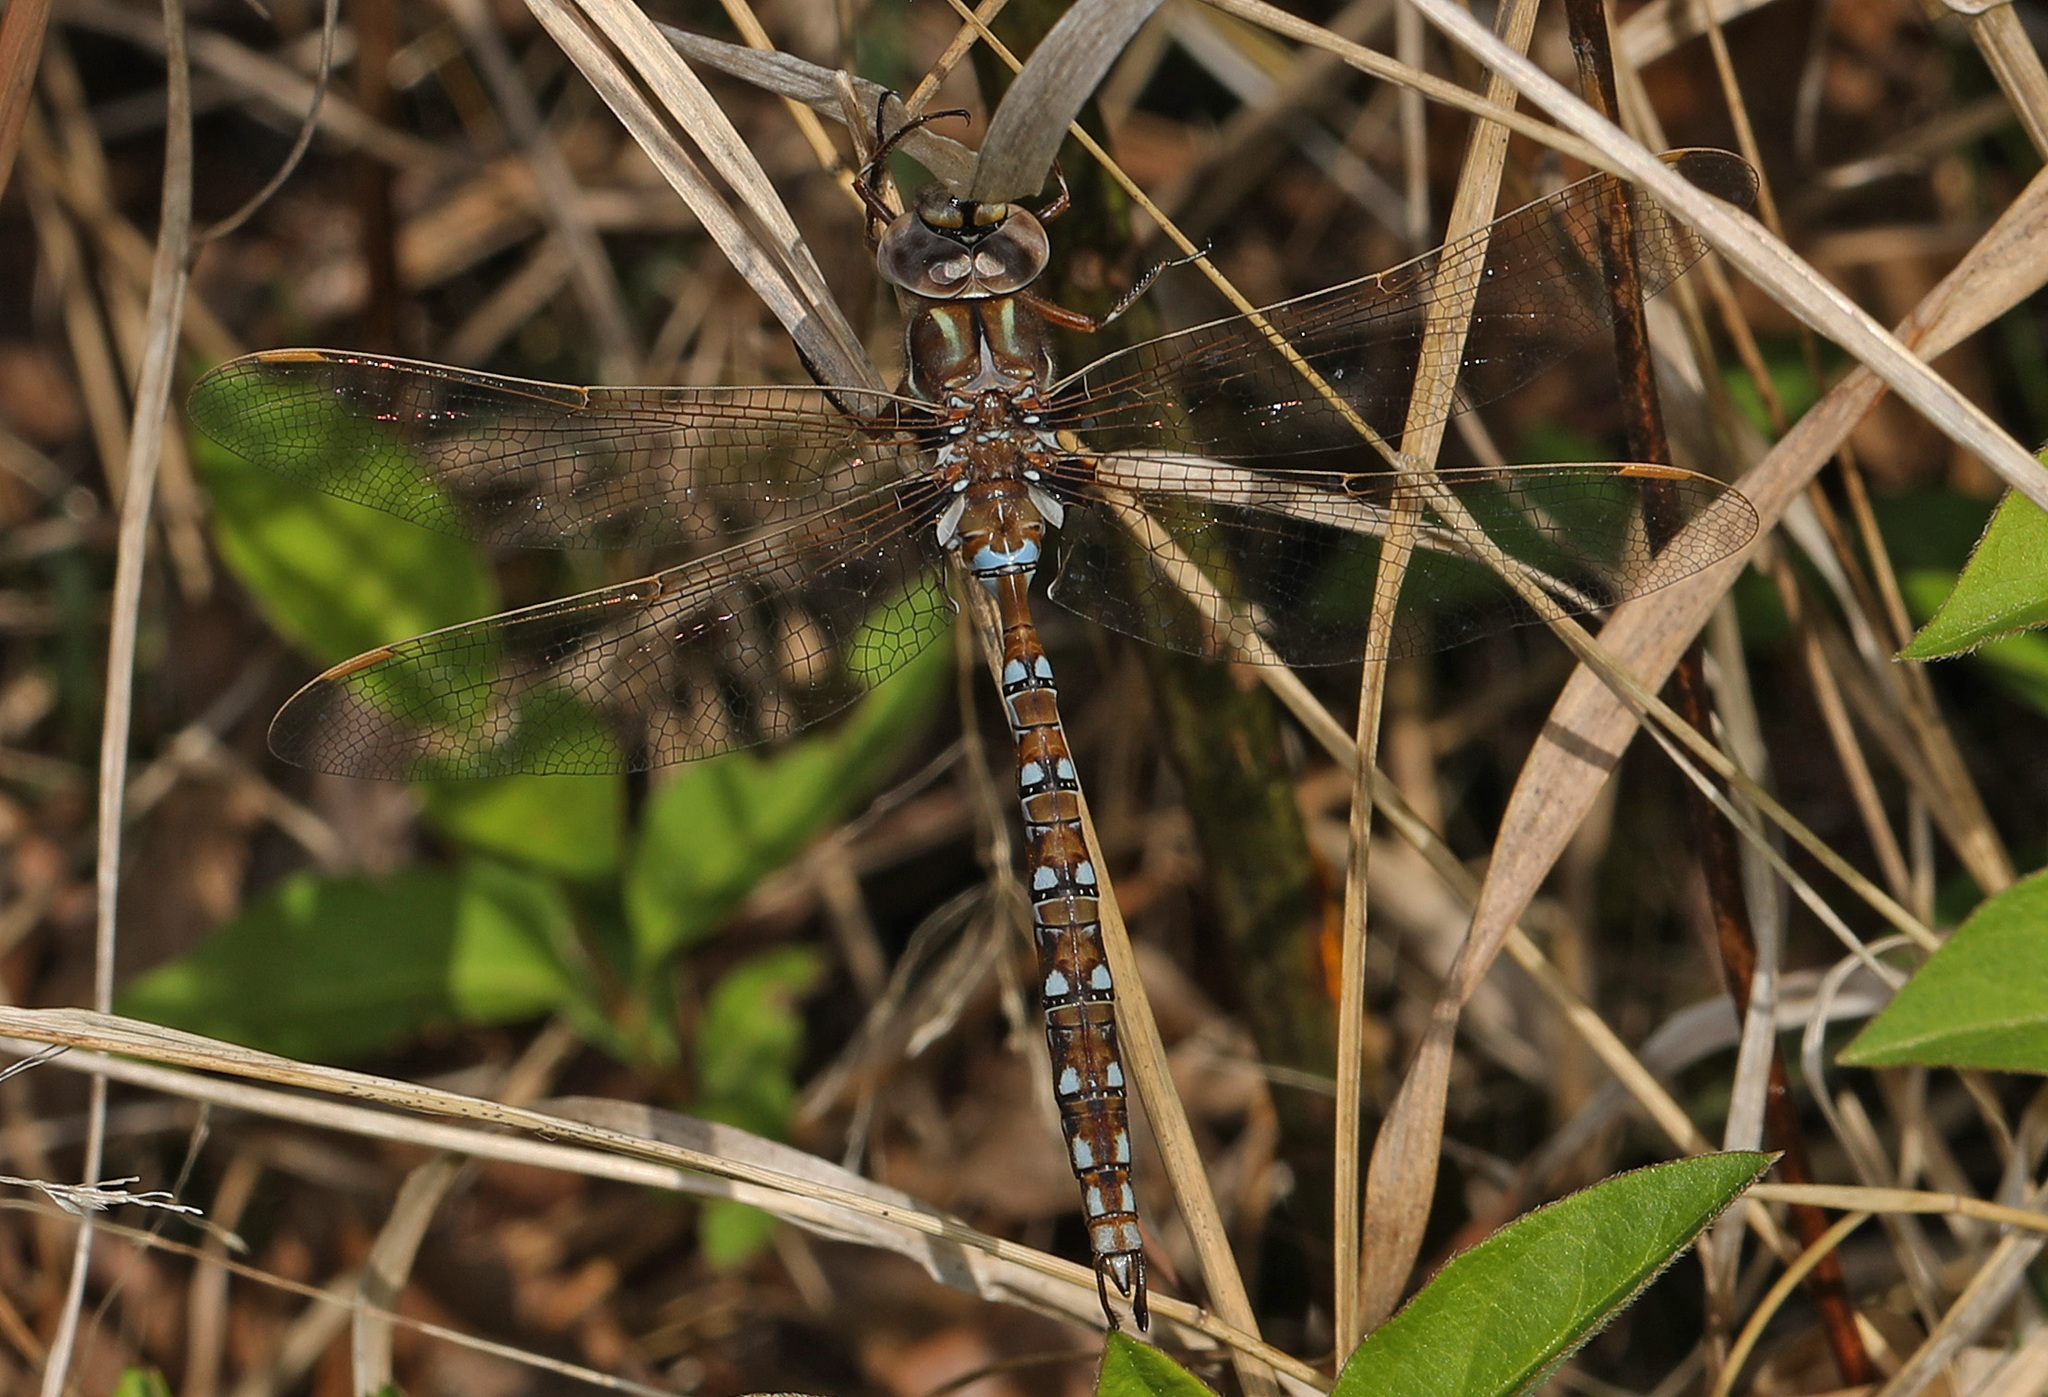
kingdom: Animalia
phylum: Arthropoda
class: Insecta
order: Odonata
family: Aeshnidae
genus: Basiaeschna
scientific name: Basiaeschna janata
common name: Springtime darner
